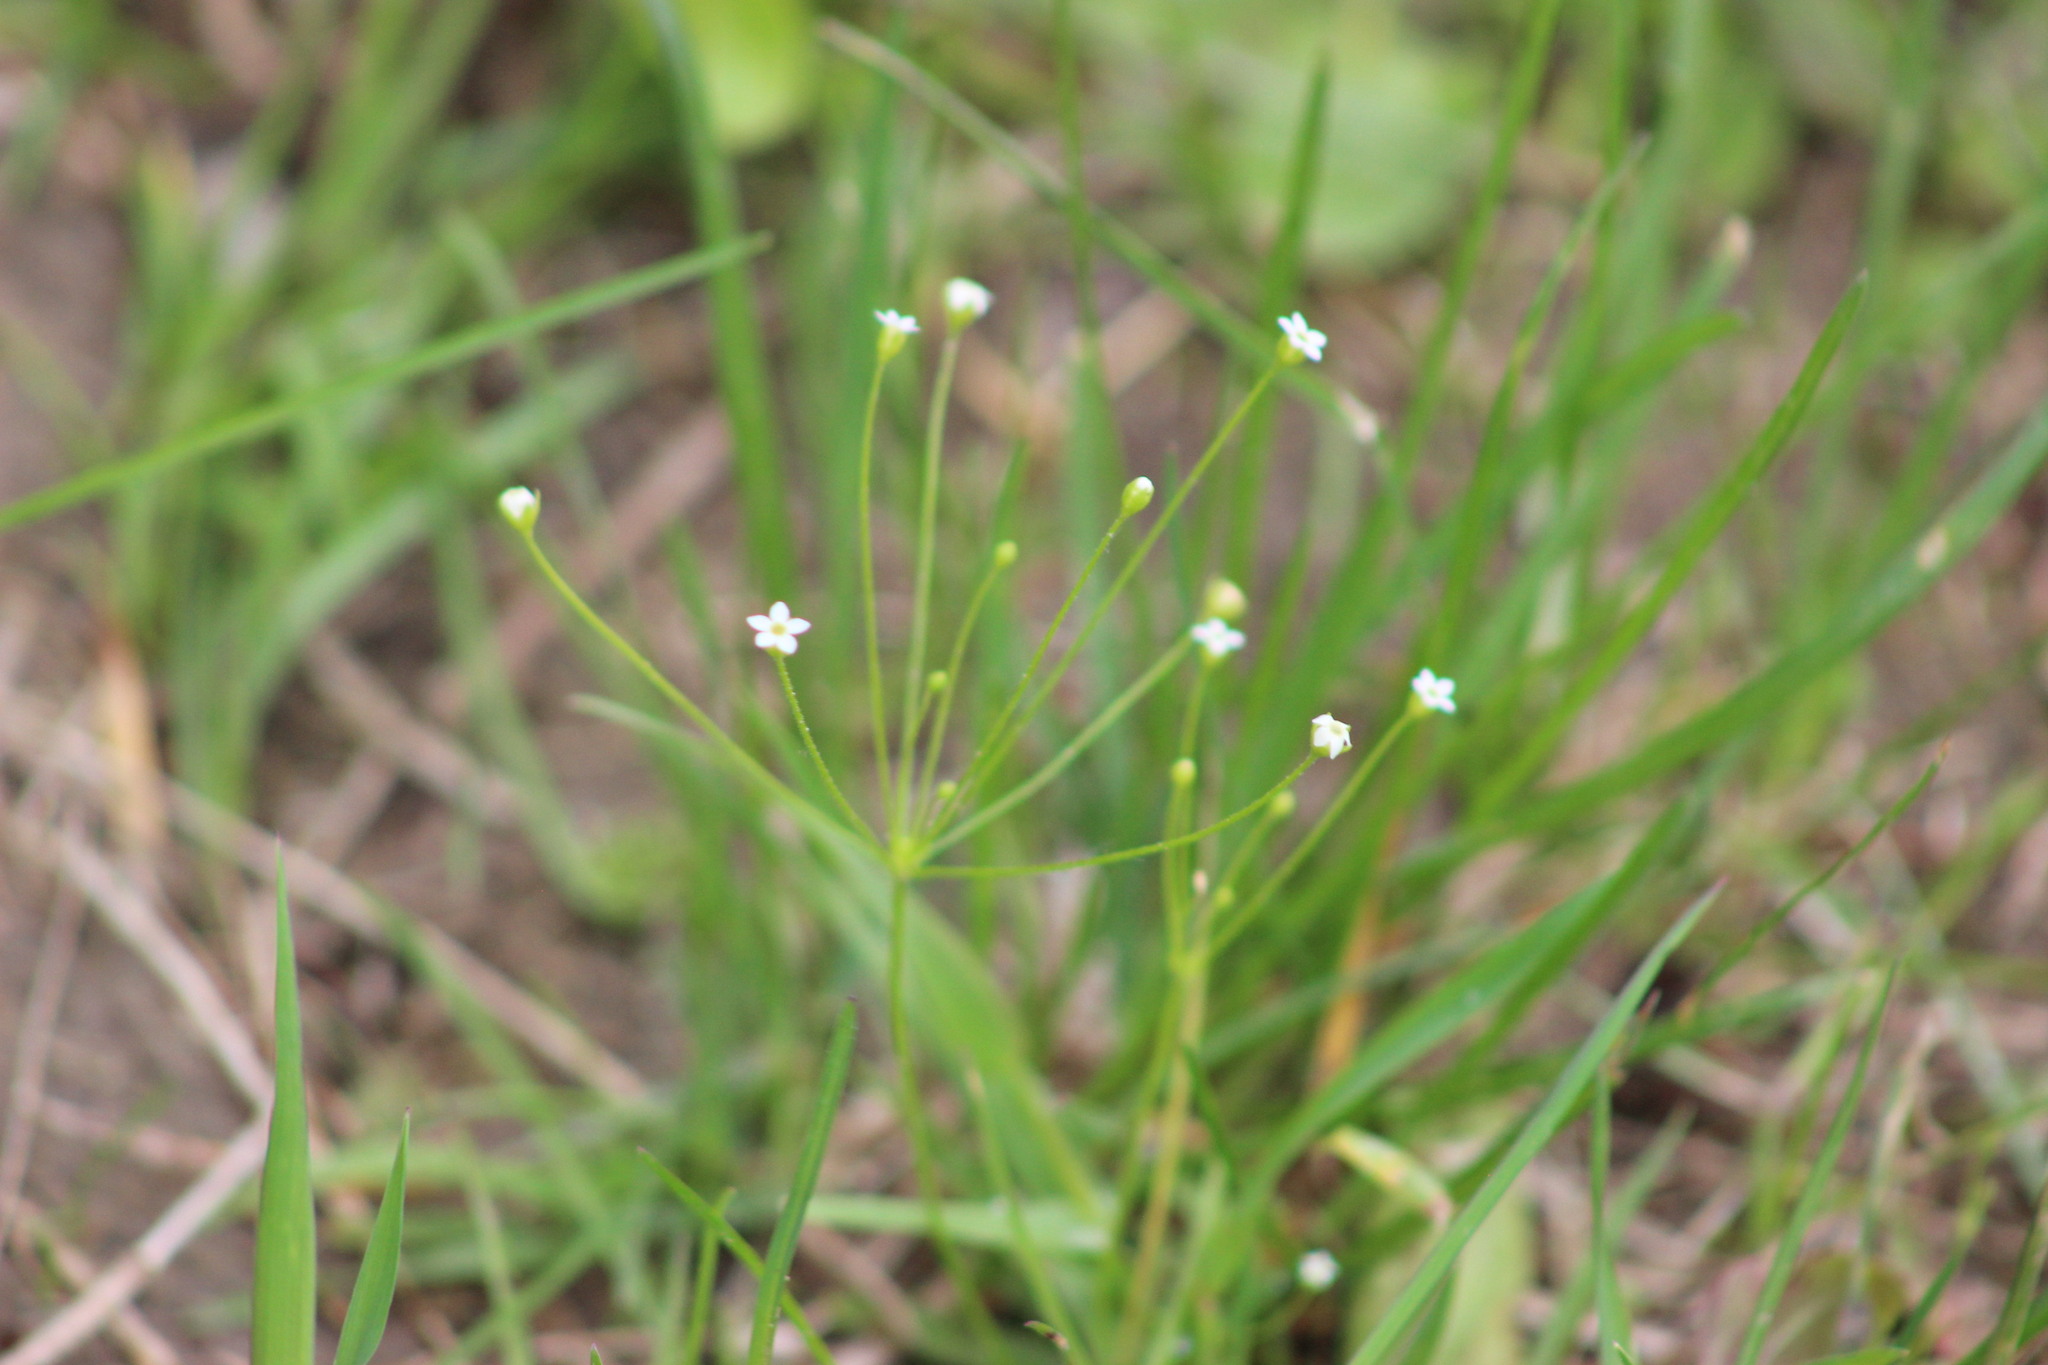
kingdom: Plantae
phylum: Tracheophyta
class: Magnoliopsida
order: Ericales
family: Primulaceae
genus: Androsace
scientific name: Androsace filiformis
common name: Filiform rock jasmine
